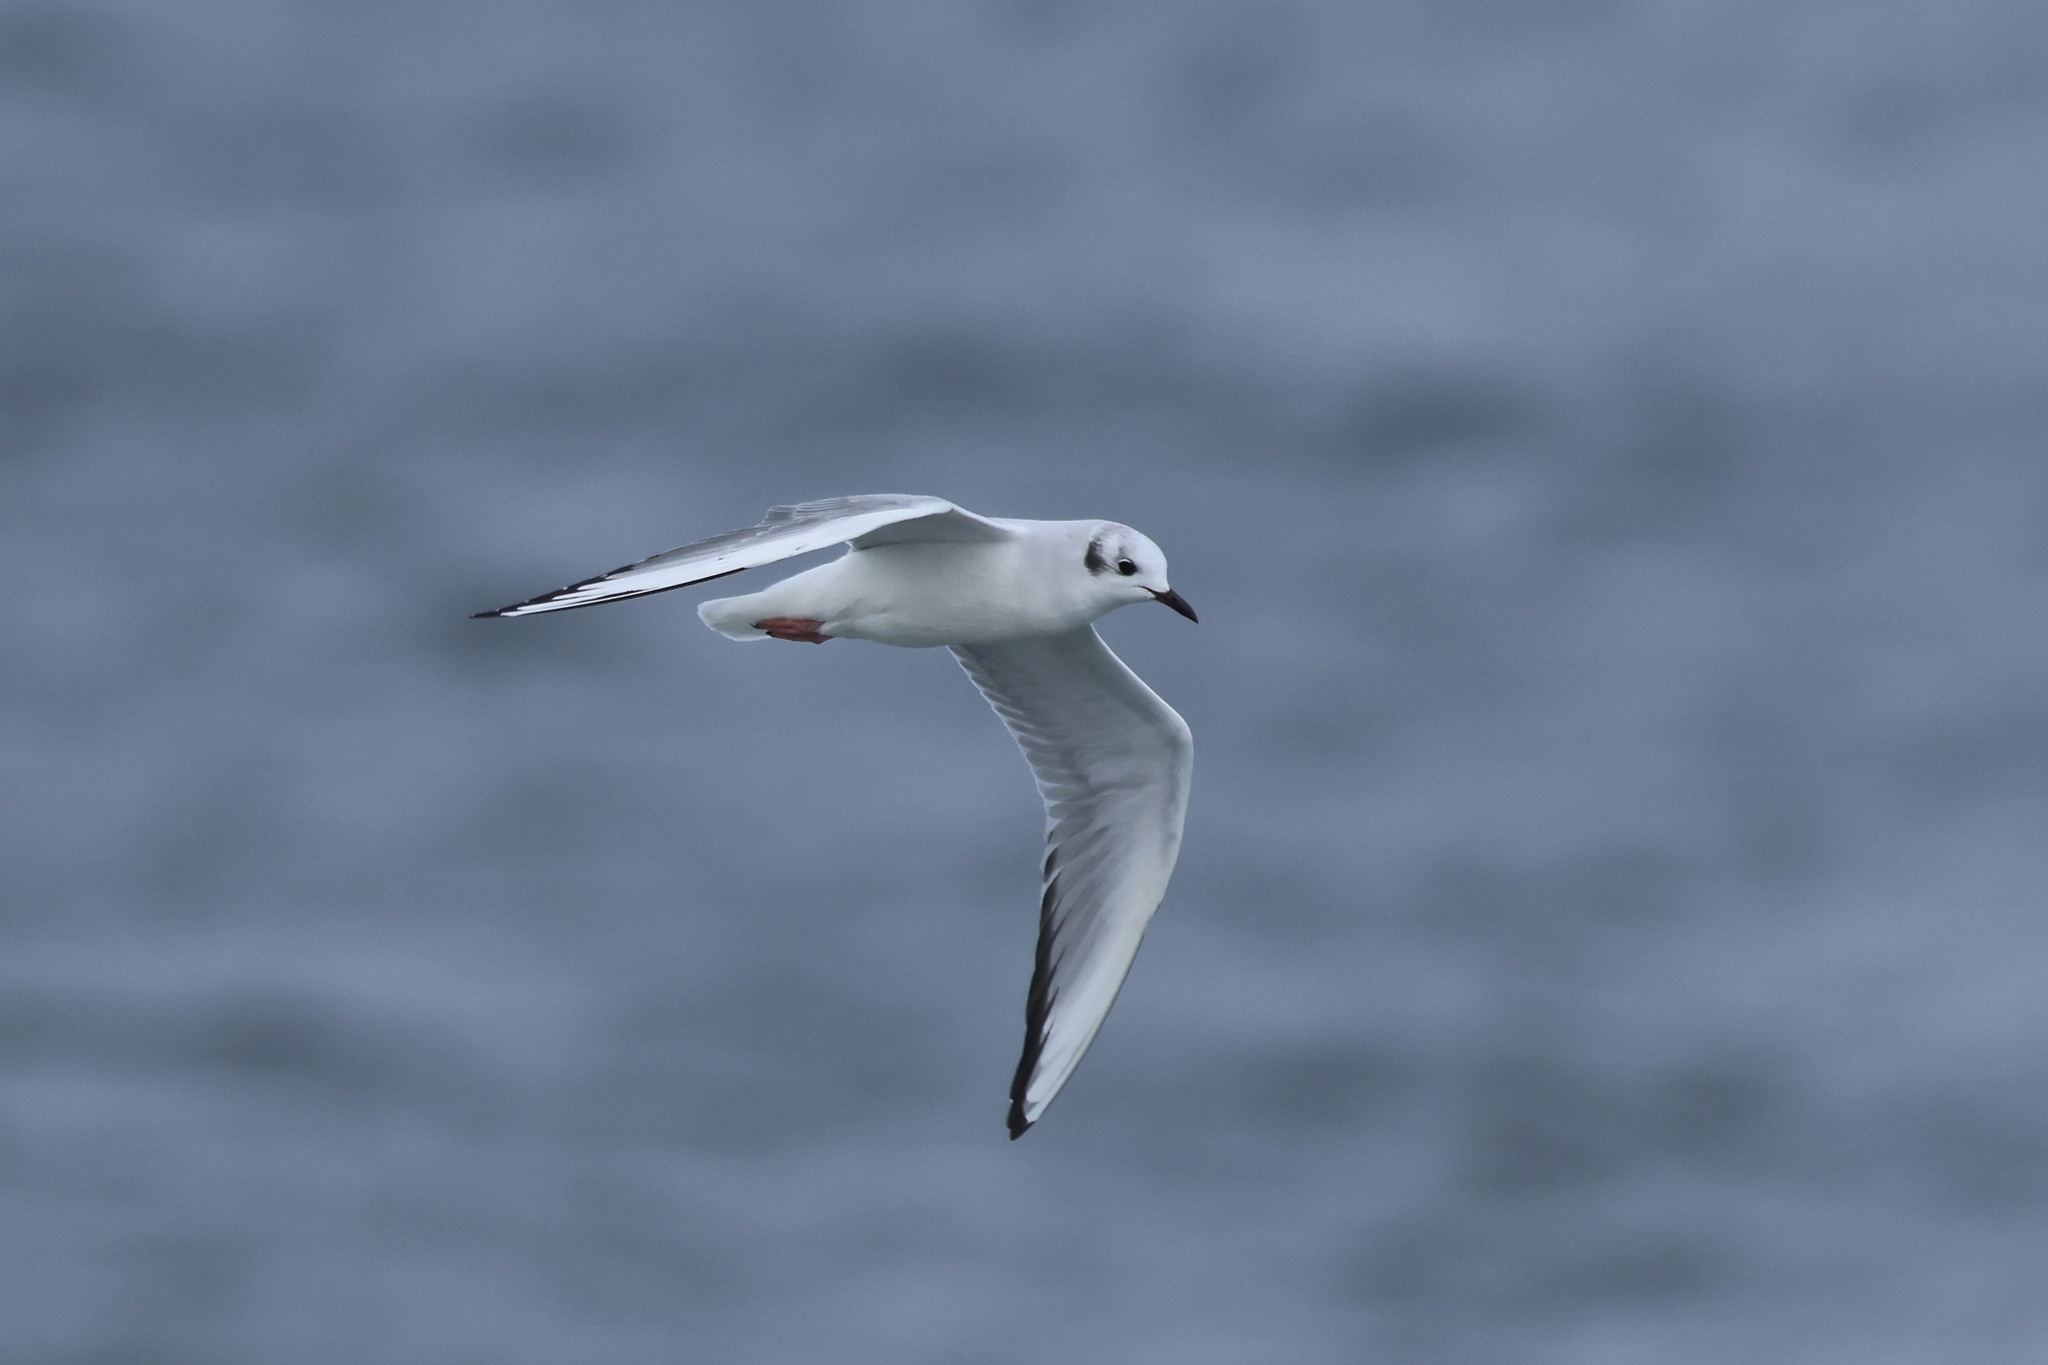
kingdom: Animalia
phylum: Chordata
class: Aves
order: Charadriiformes
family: Laridae
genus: Chroicocephalus
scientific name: Chroicocephalus philadelphia
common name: Bonaparte's gull
